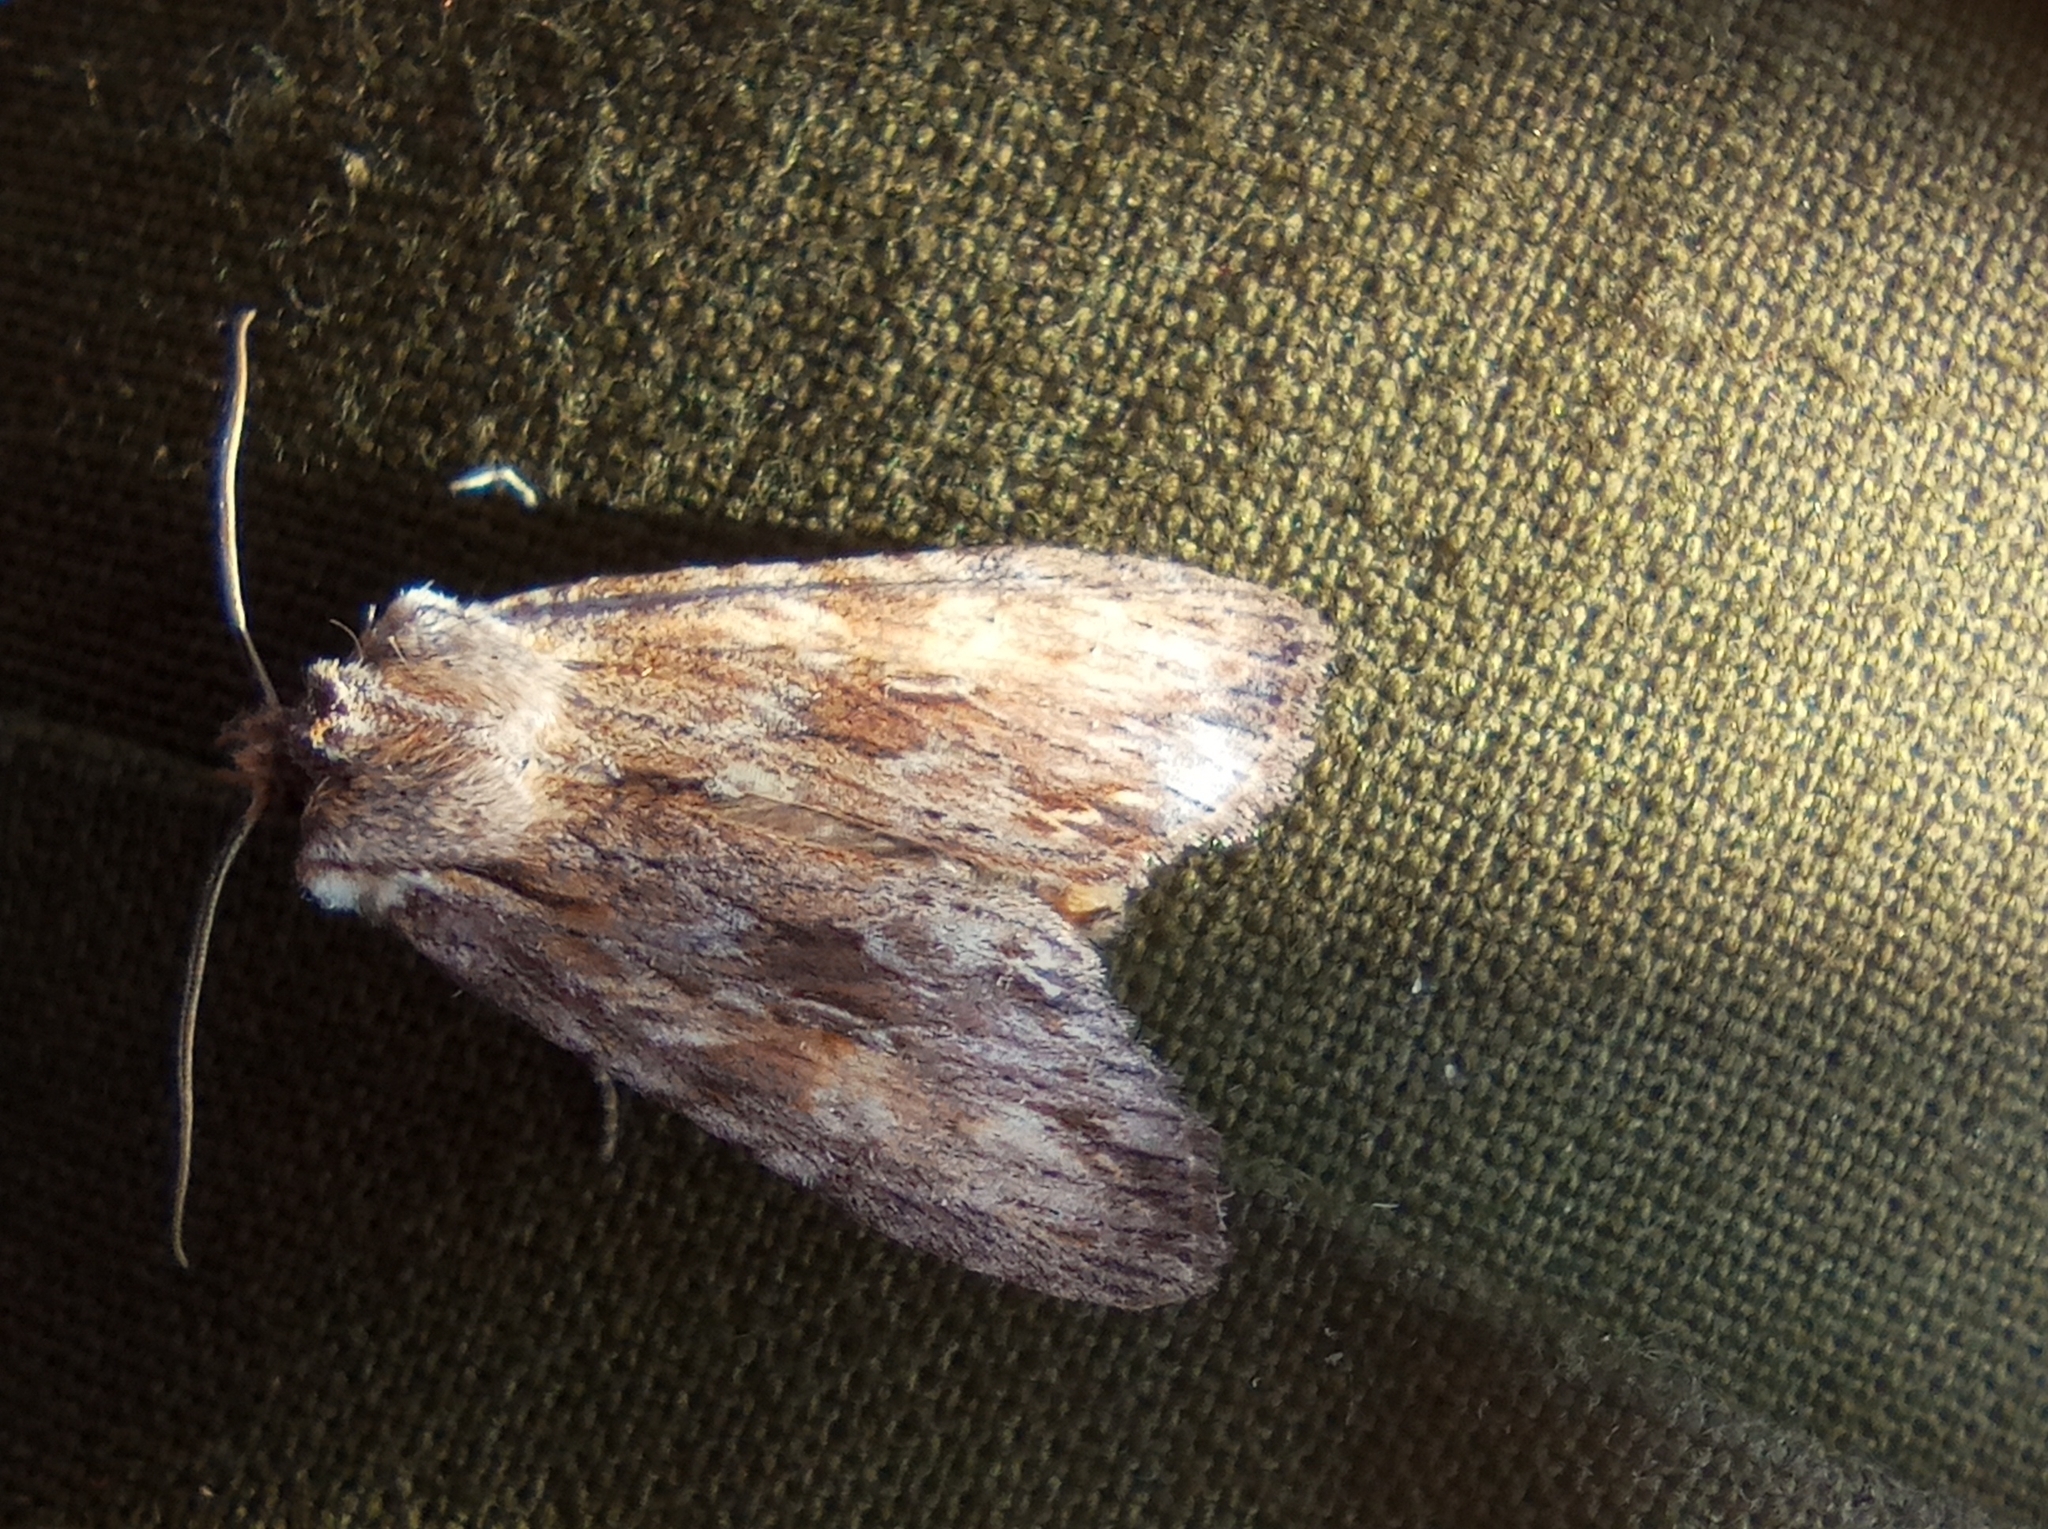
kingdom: Animalia
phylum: Arthropoda
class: Insecta
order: Lepidoptera
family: Noctuidae
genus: Lithophane
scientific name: Lithophane socia
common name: Pale pinion
